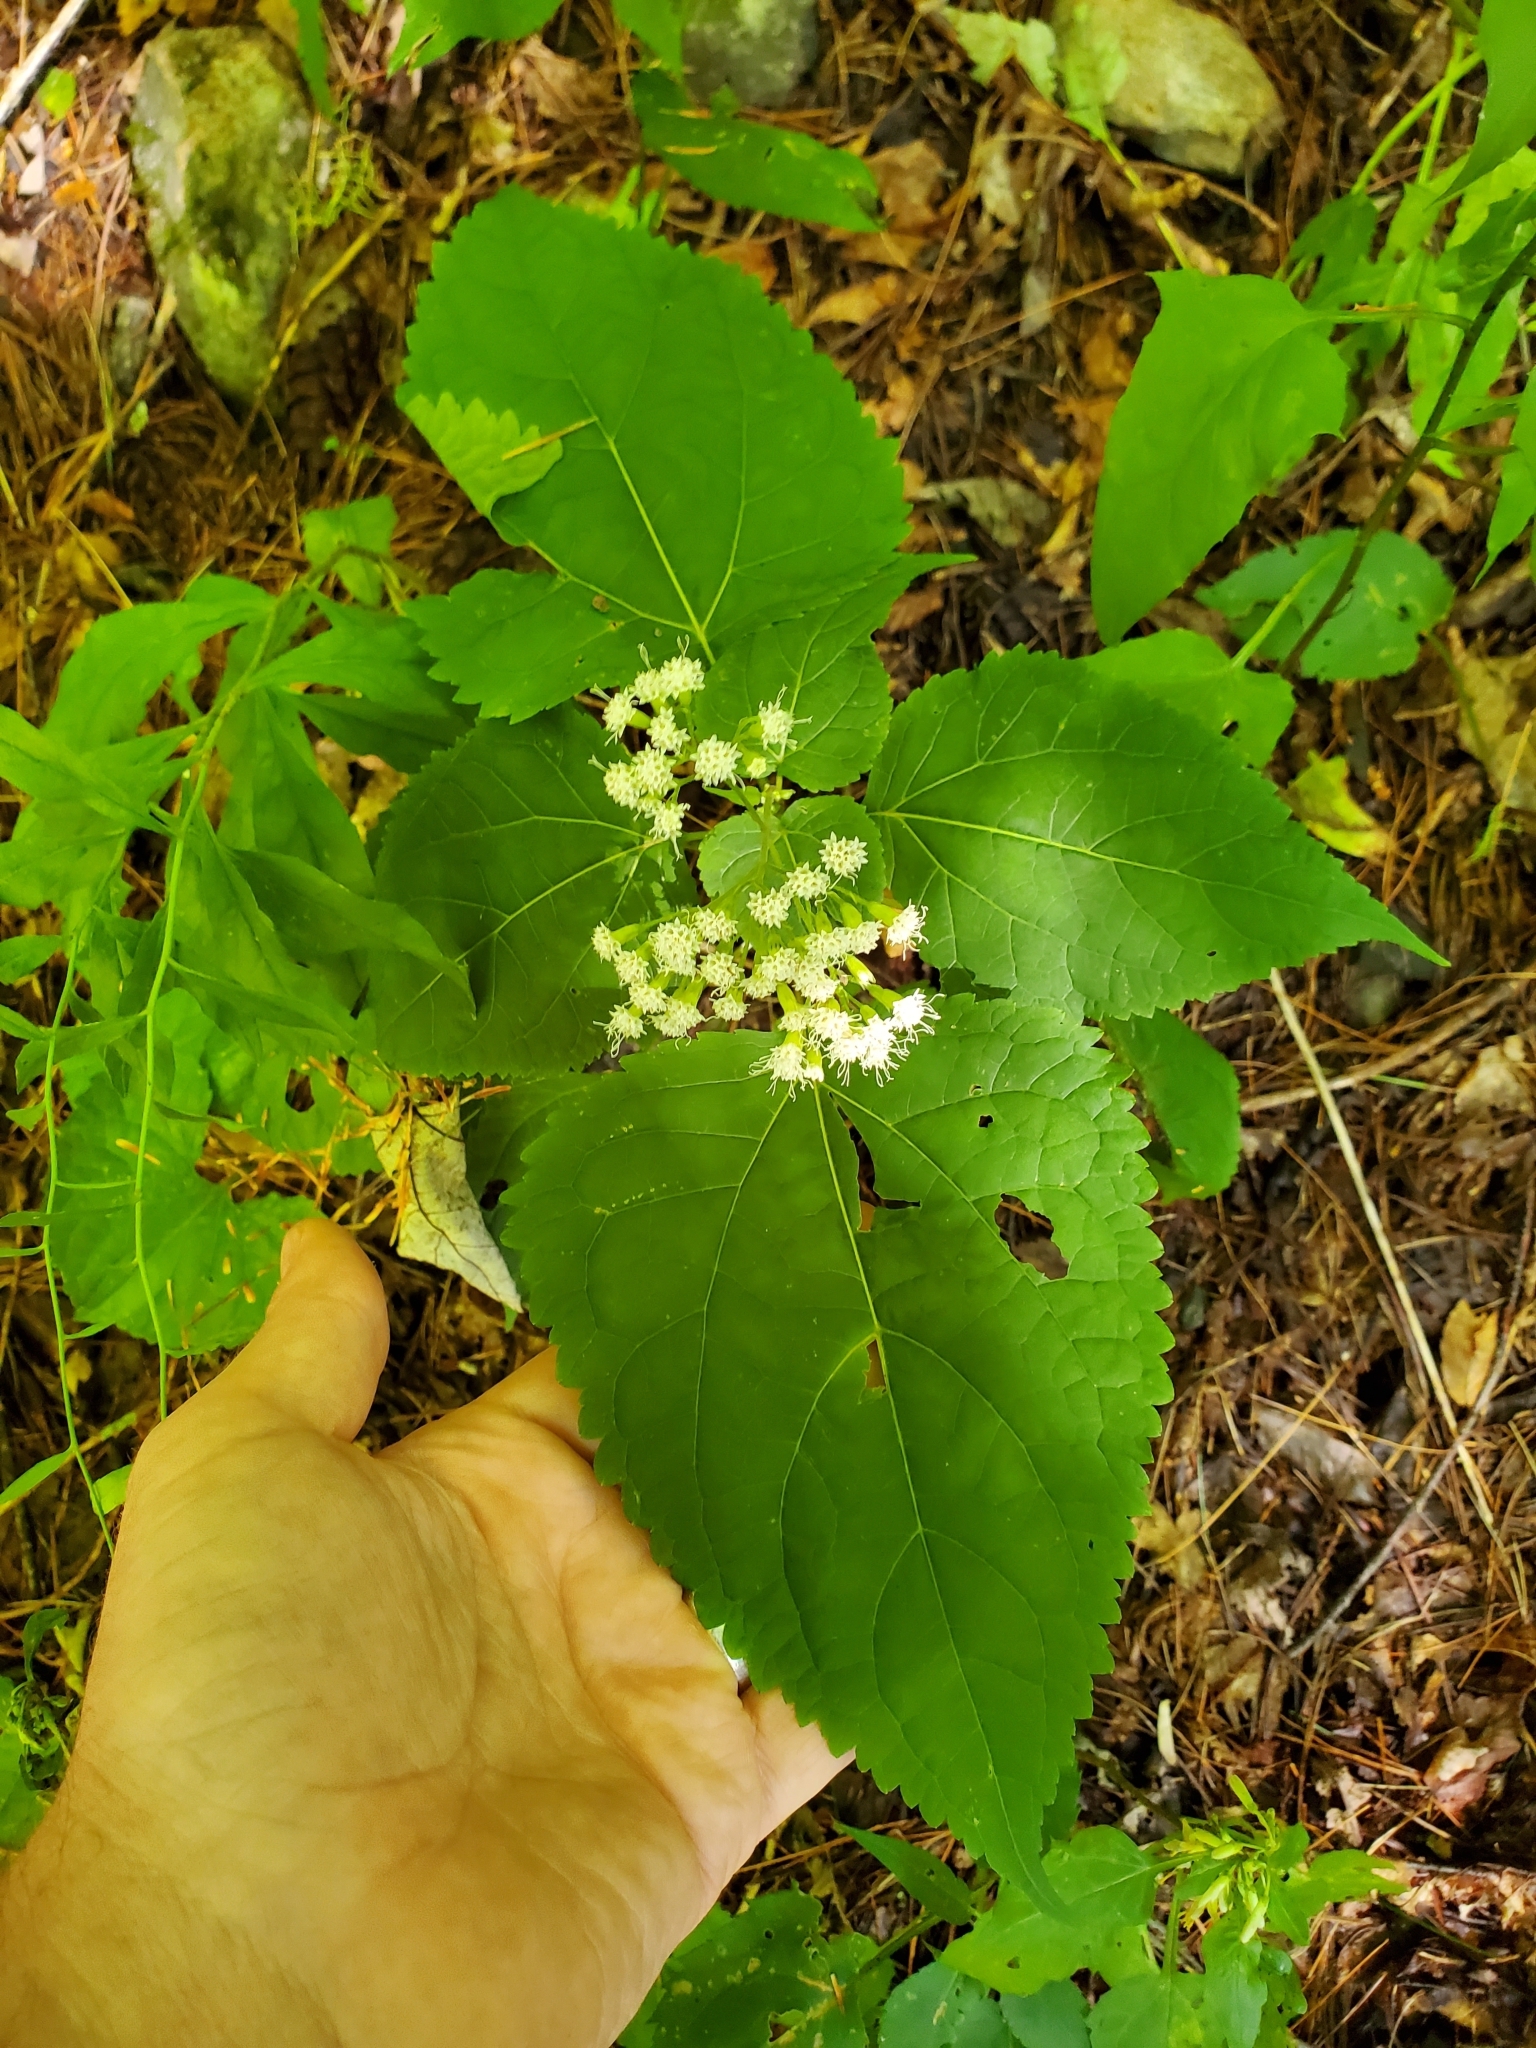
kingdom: Plantae
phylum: Tracheophyta
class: Magnoliopsida
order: Asterales
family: Asteraceae
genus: Ageratina
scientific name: Ageratina altissima
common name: White snakeroot
